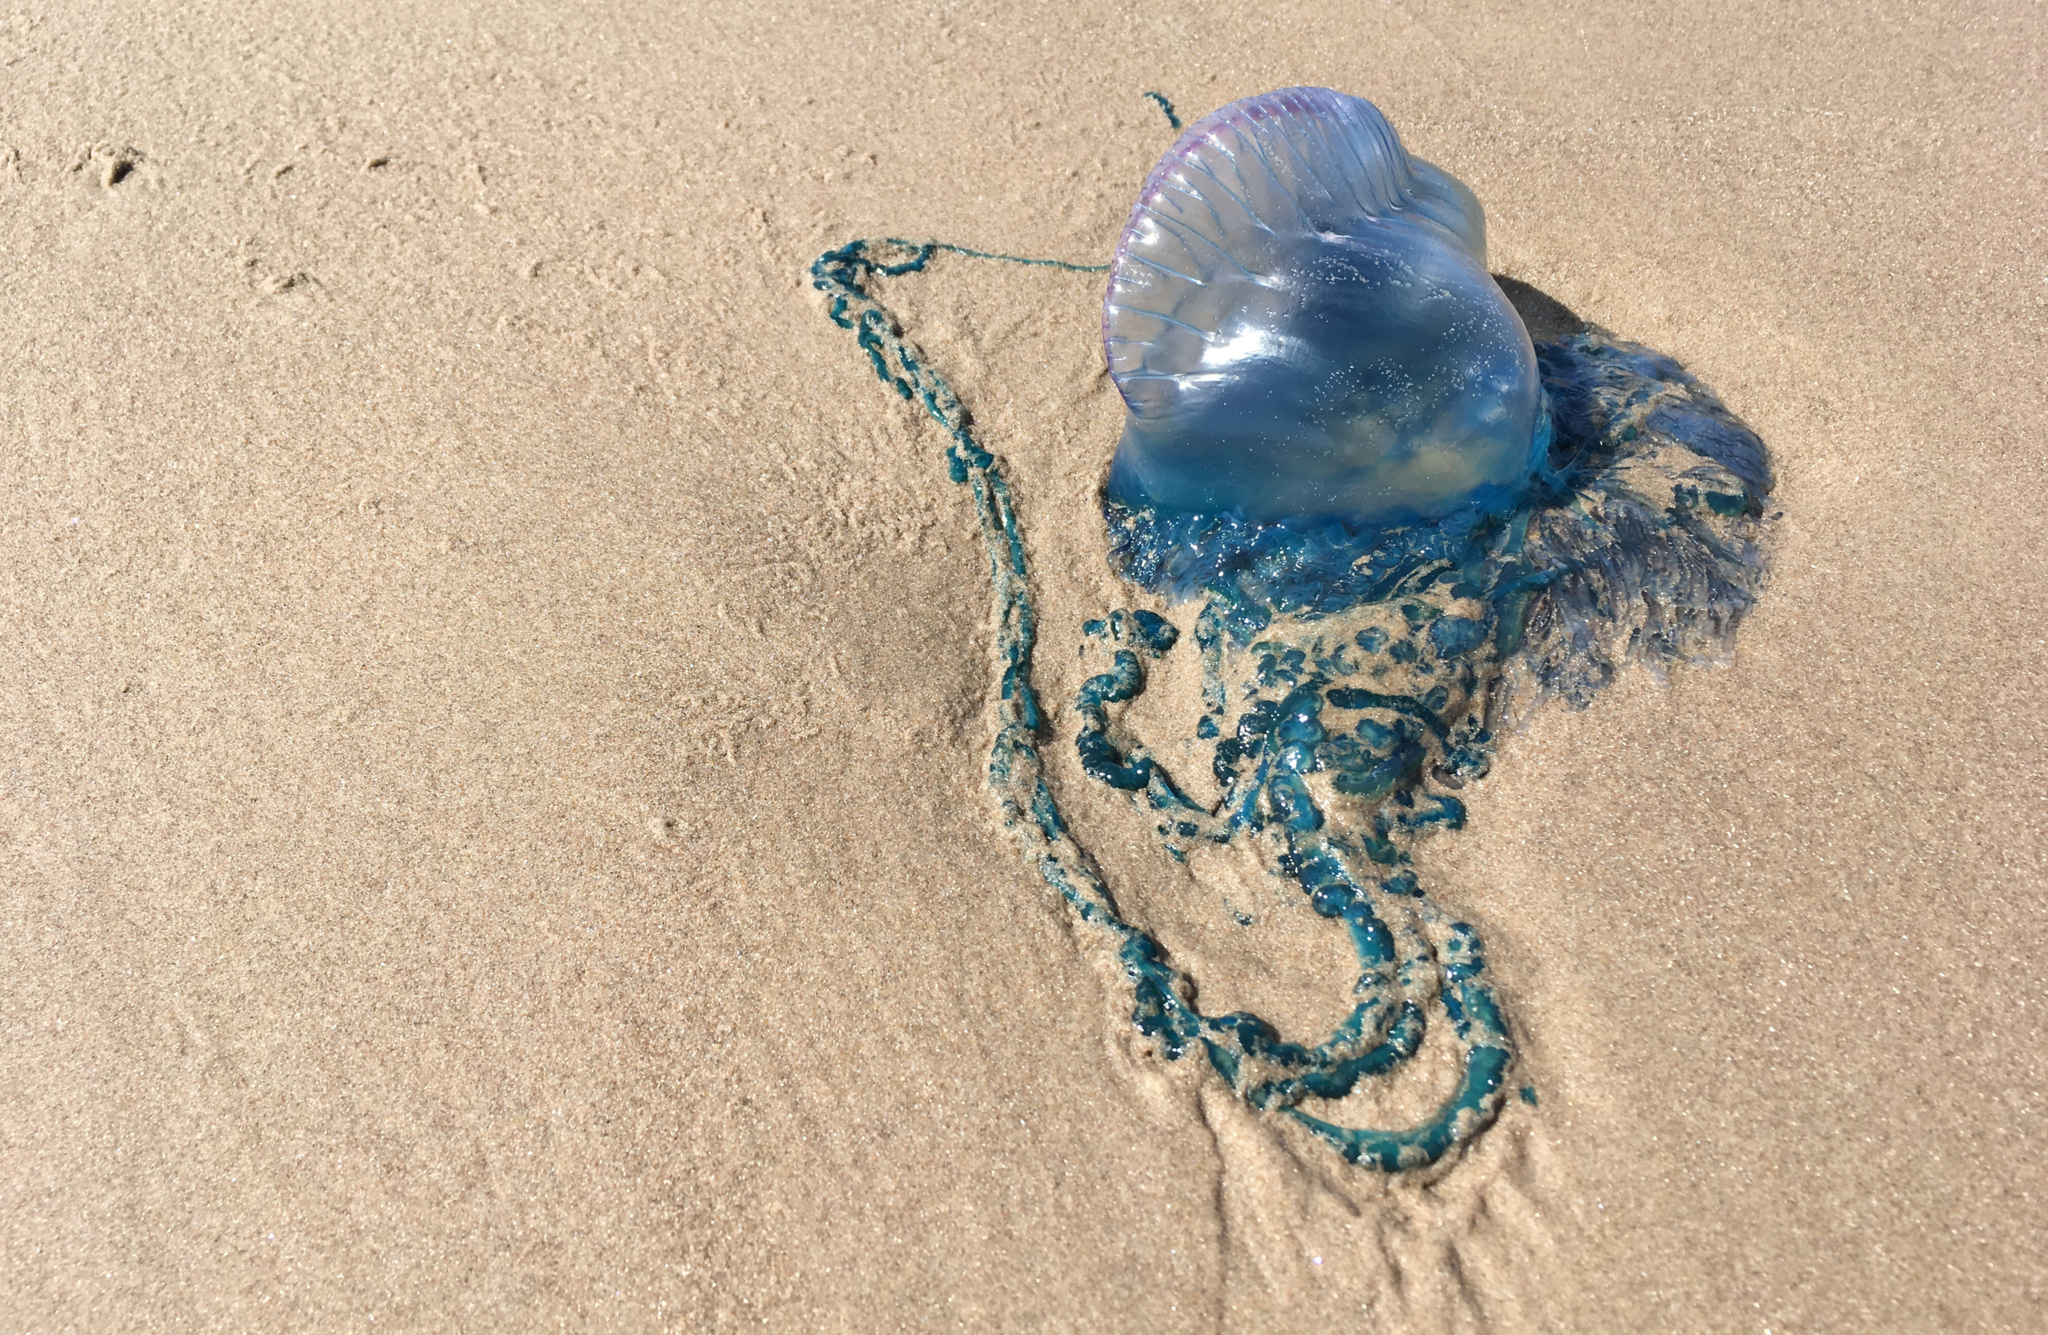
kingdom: Animalia
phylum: Cnidaria
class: Hydrozoa
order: Siphonophorae
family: Physaliidae
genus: Physalia
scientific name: Physalia physalis
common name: Portuguese man-of-war
